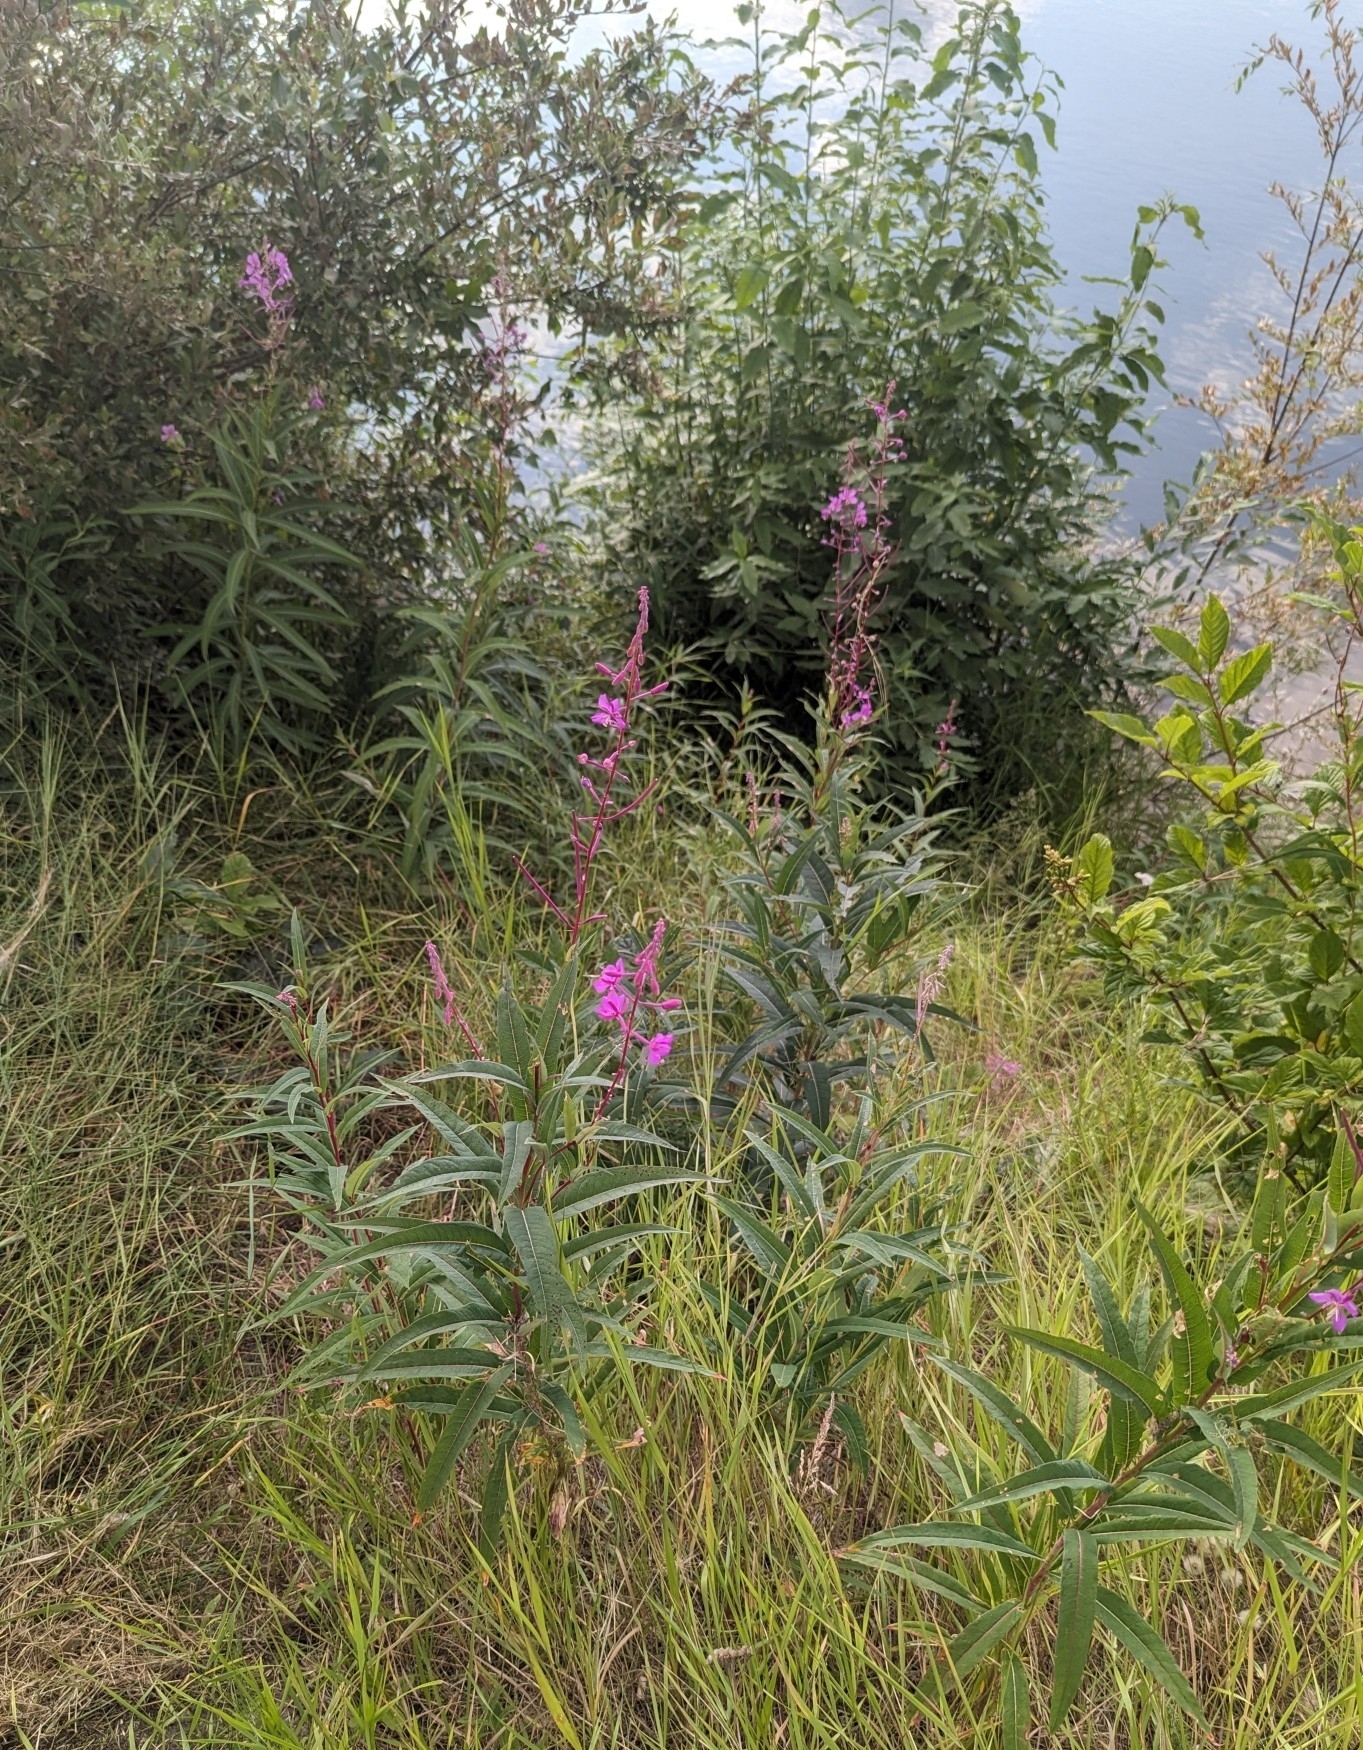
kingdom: Plantae
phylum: Tracheophyta
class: Magnoliopsida
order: Myrtales
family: Onagraceae
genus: Chamaenerion
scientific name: Chamaenerion angustifolium
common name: Fireweed
